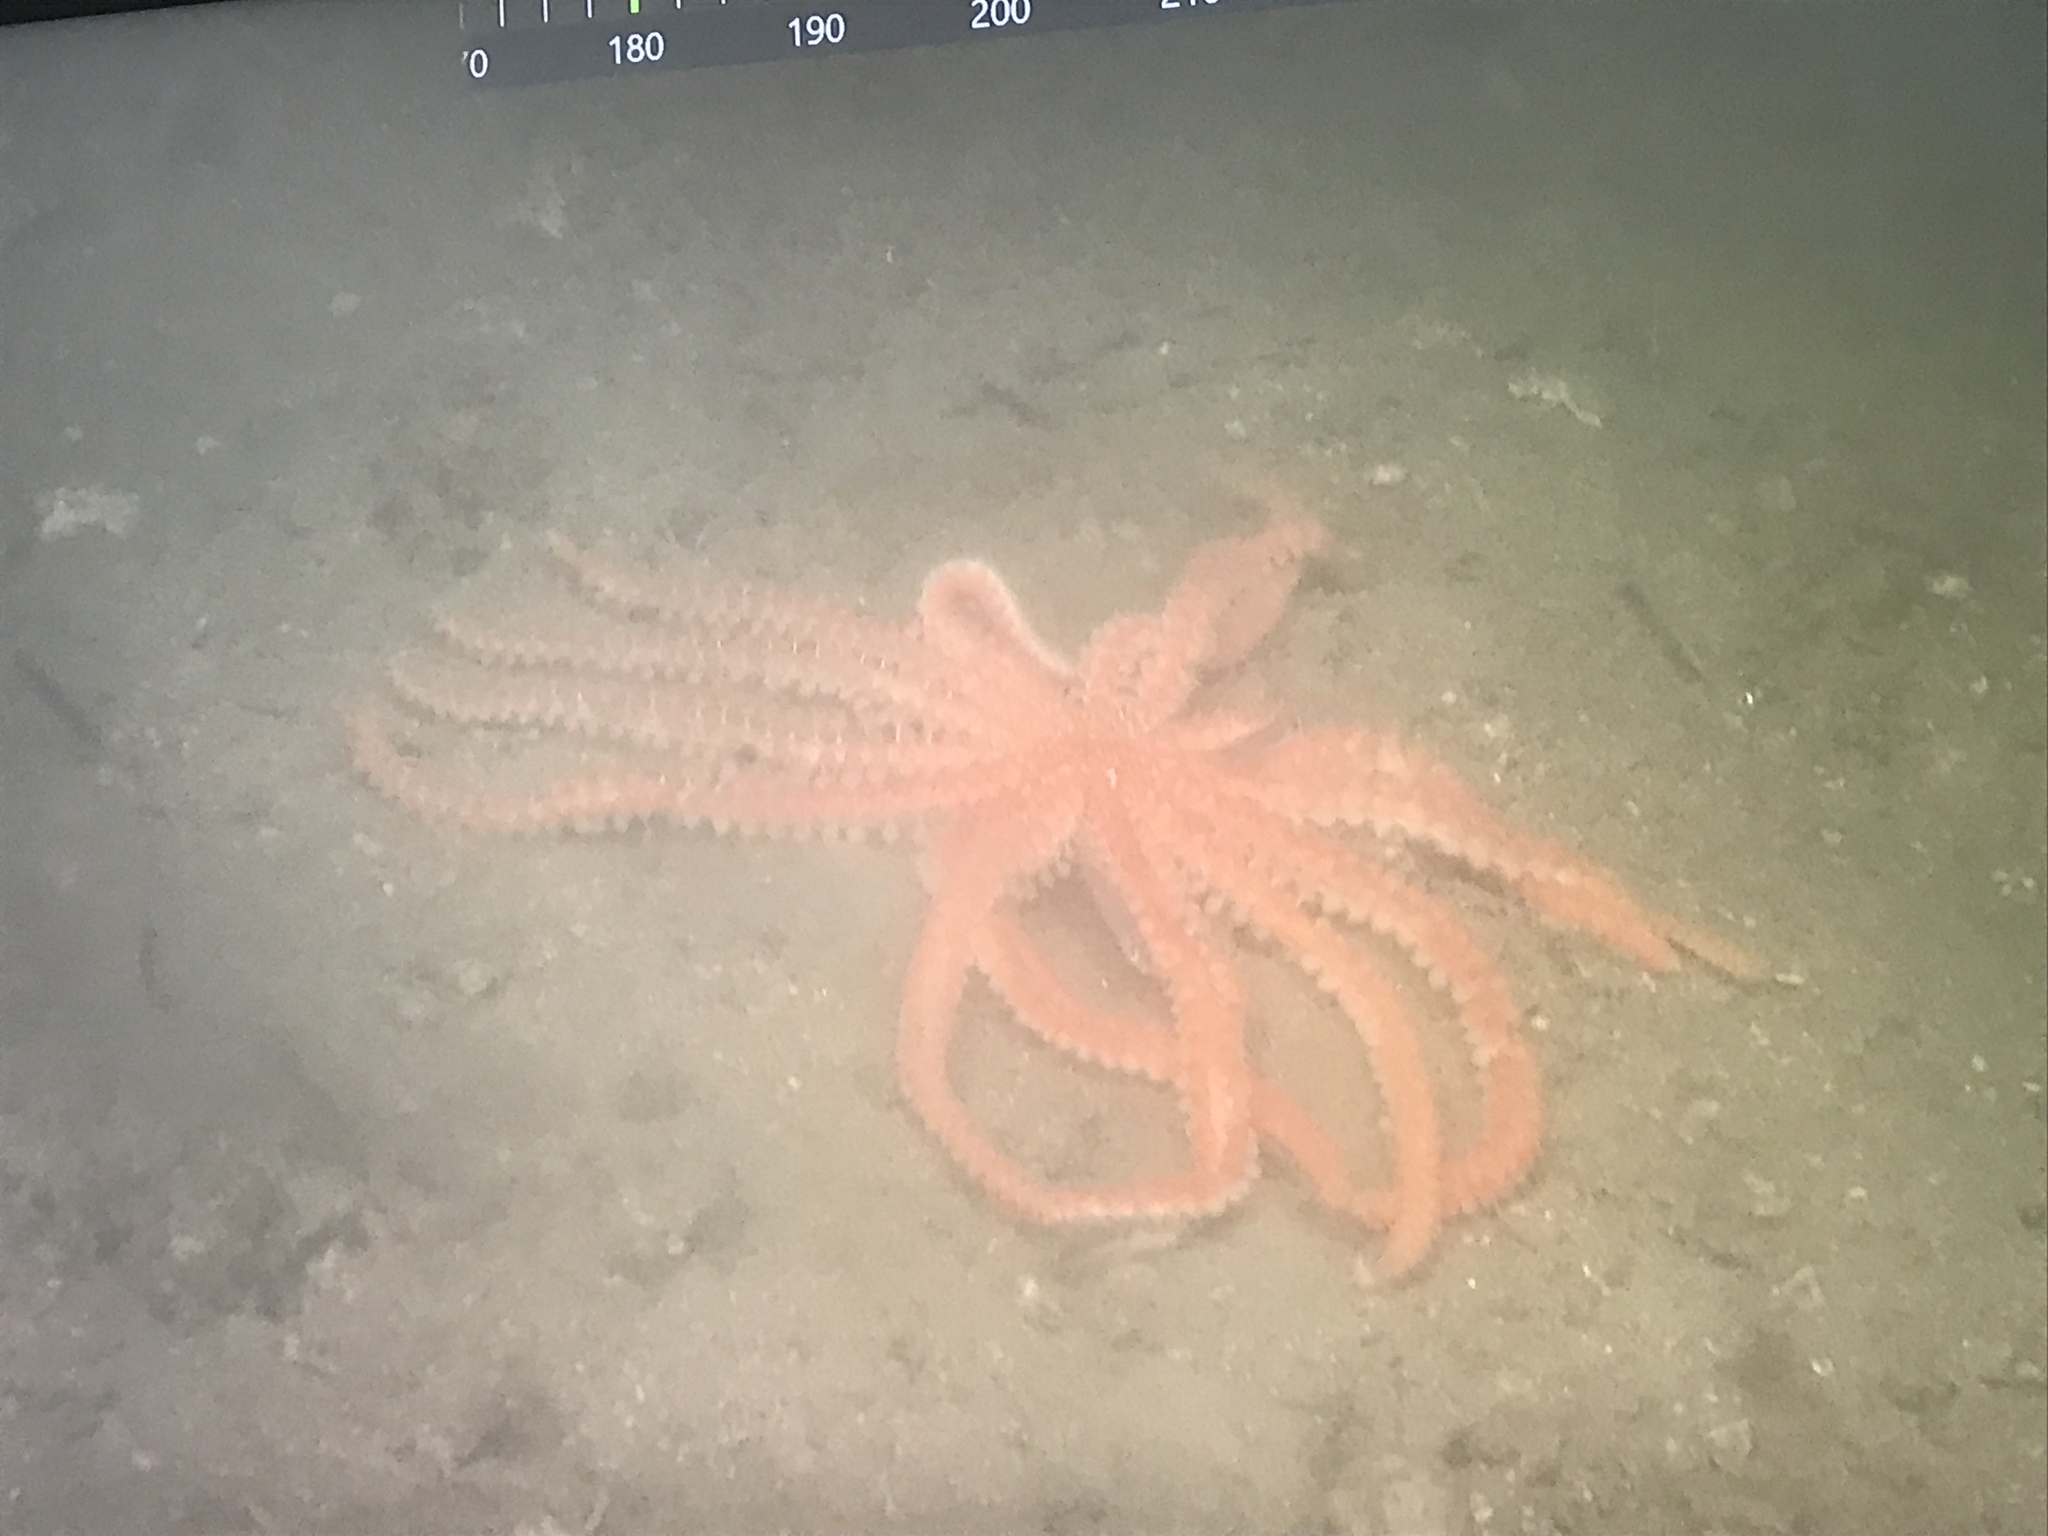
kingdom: Animalia
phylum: Echinodermata
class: Asteroidea
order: Forcipulatida
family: Asteriidae
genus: Coronaster
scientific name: Coronaster briareus
